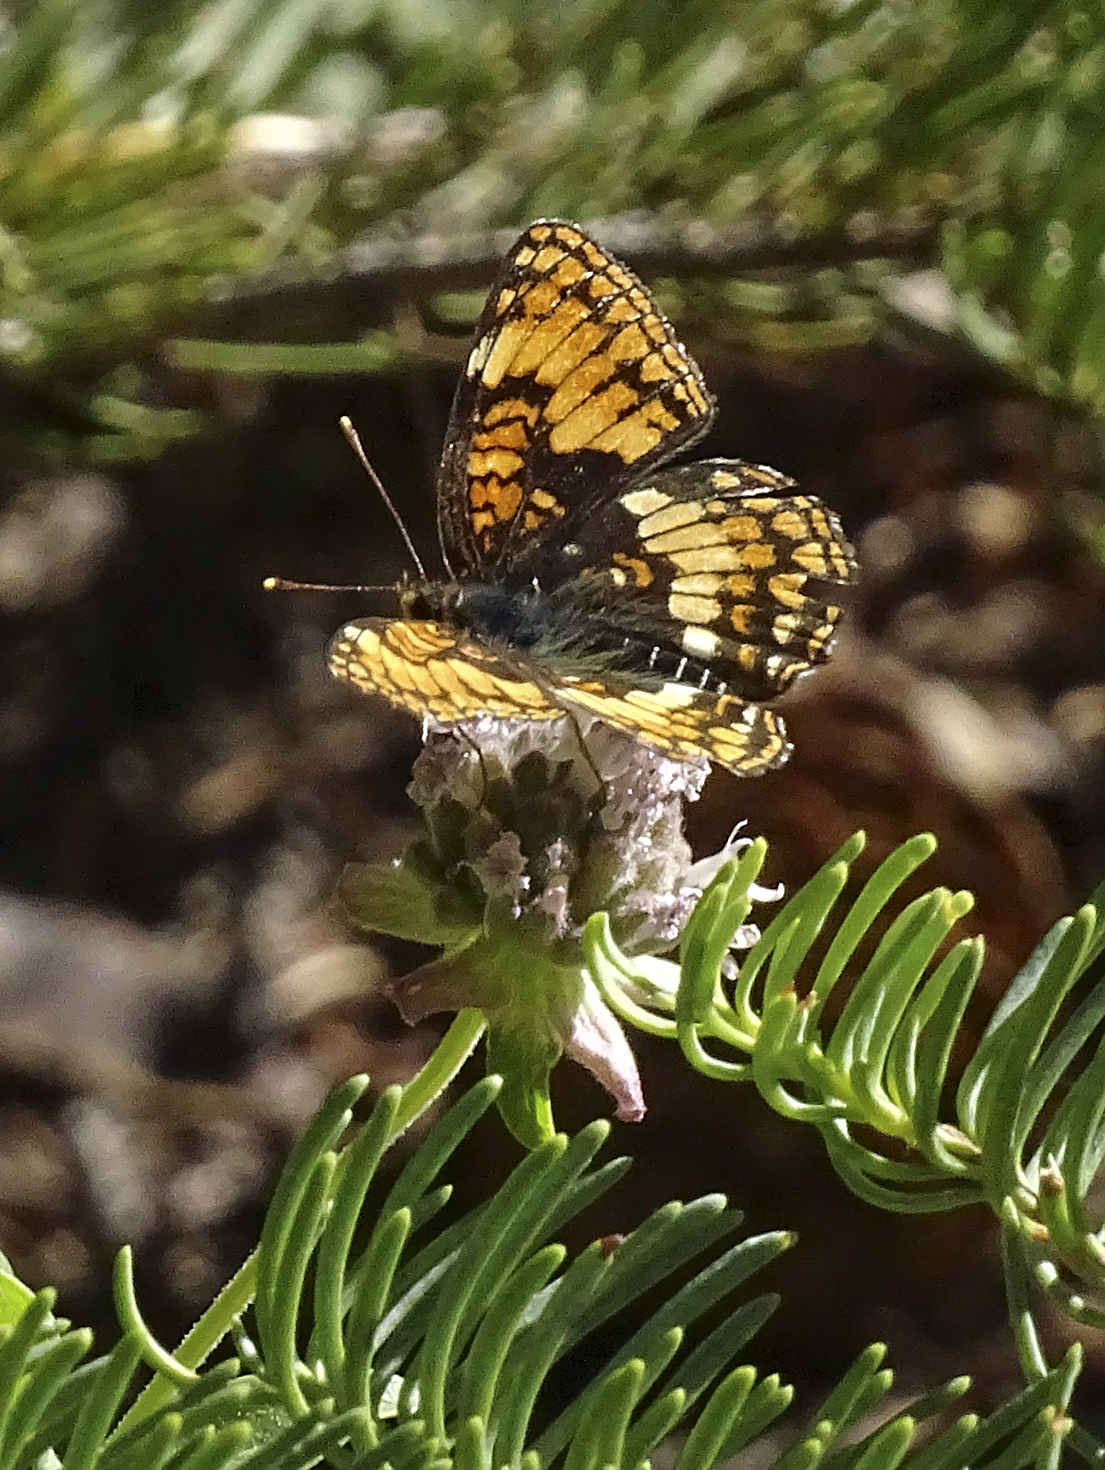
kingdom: Animalia
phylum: Arthropoda
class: Insecta
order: Lepidoptera
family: Nymphalidae
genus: Chlosyne
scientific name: Chlosyne hoffmanni
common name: Hoffmann's checkerspot
